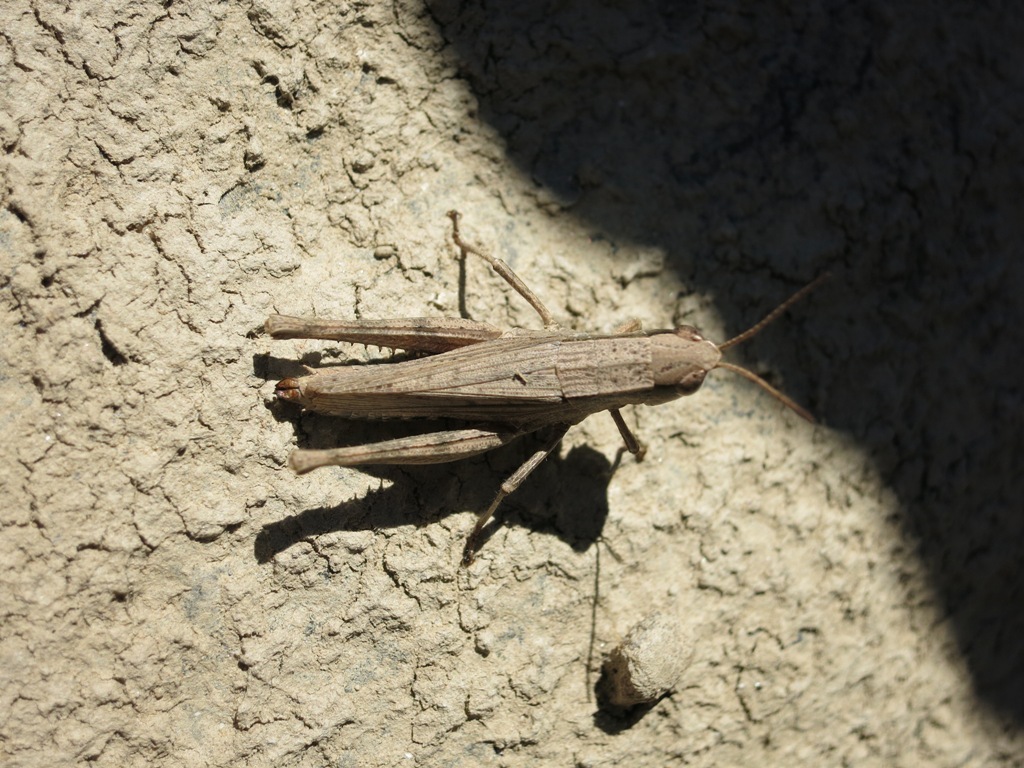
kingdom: Animalia
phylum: Arthropoda
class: Insecta
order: Orthoptera
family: Acrididae
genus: Dichromorpha
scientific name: Dichromorpha viridis
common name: Short-winged green grasshopper
